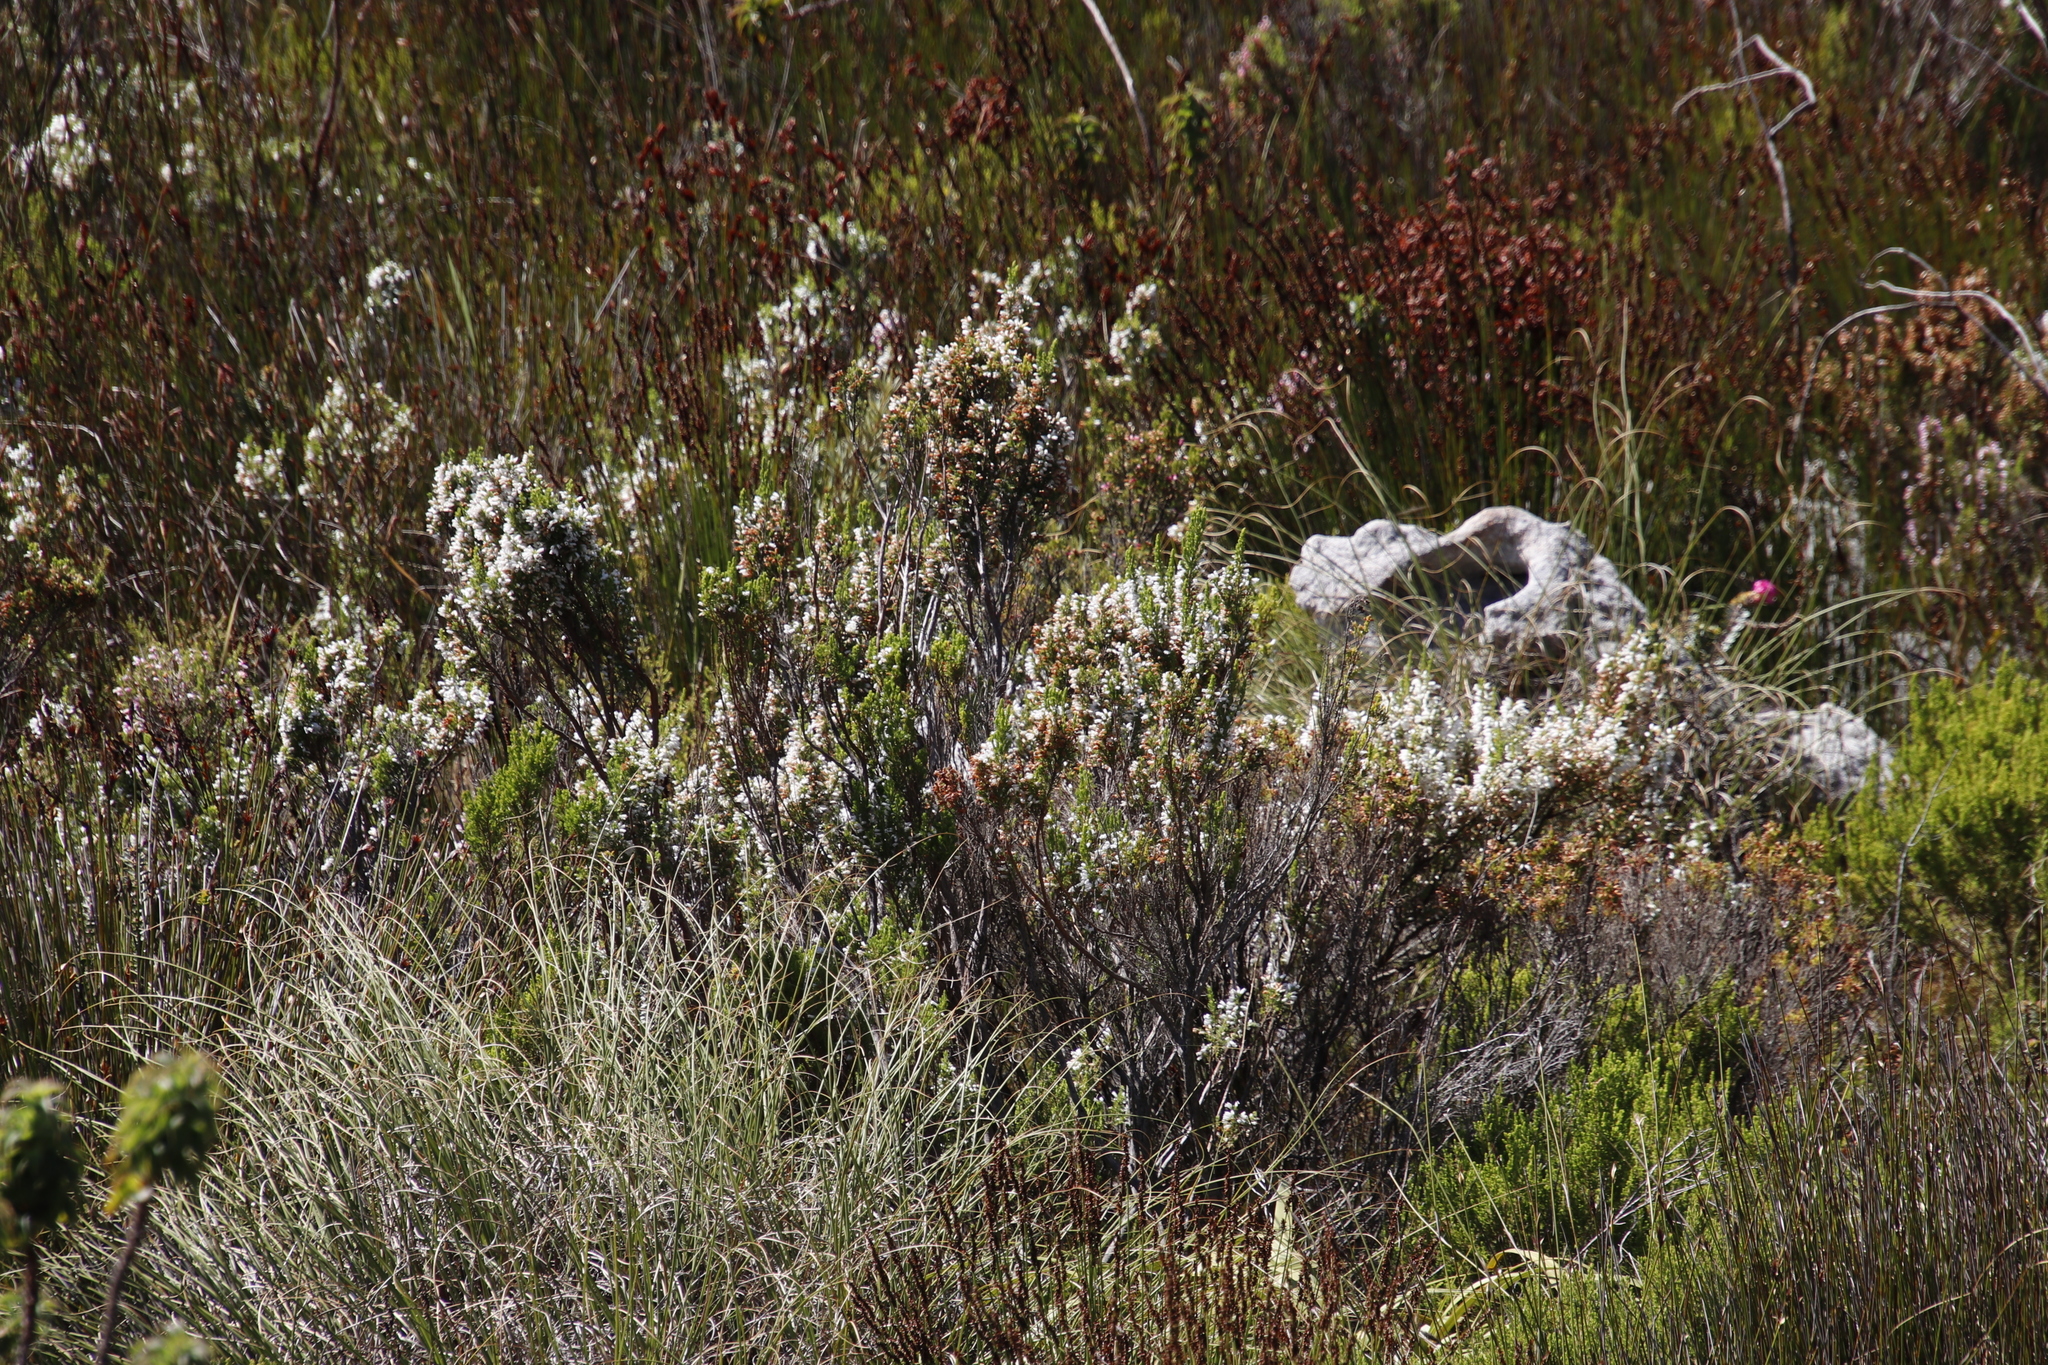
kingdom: Plantae
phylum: Tracheophyta
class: Magnoliopsida
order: Ericales
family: Ericaceae
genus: Erica
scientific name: Erica sitiens
